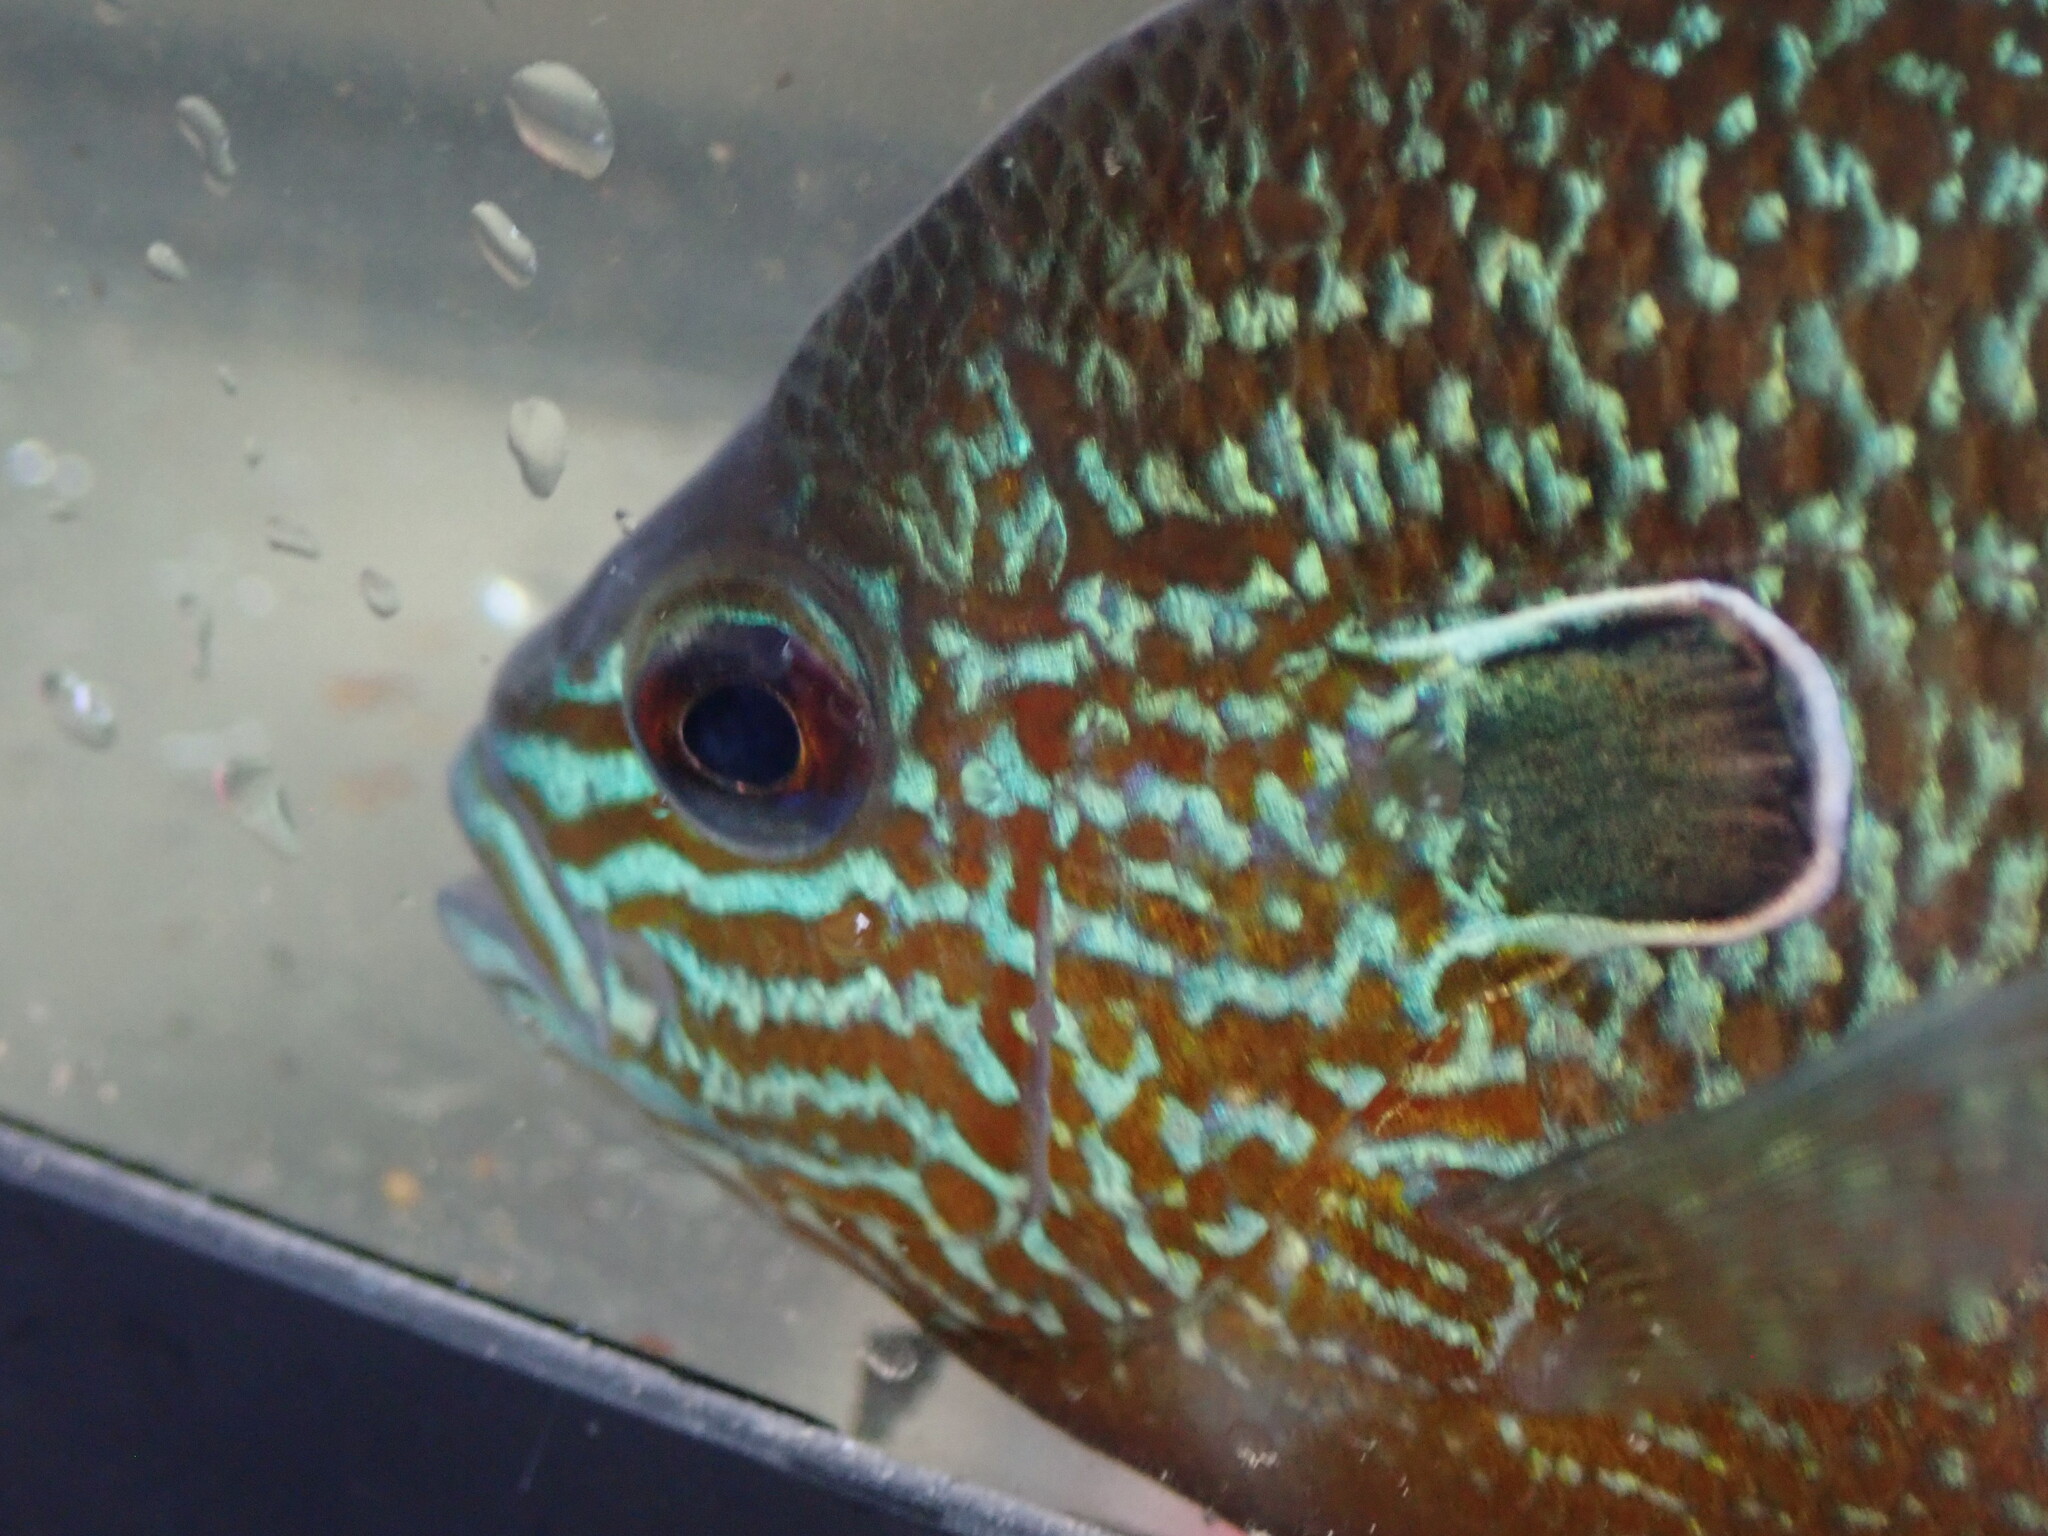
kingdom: Animalia
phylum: Chordata
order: Perciformes
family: Centrarchidae
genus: Lepomis
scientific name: Lepomis megalotis
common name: Longear sunfish
